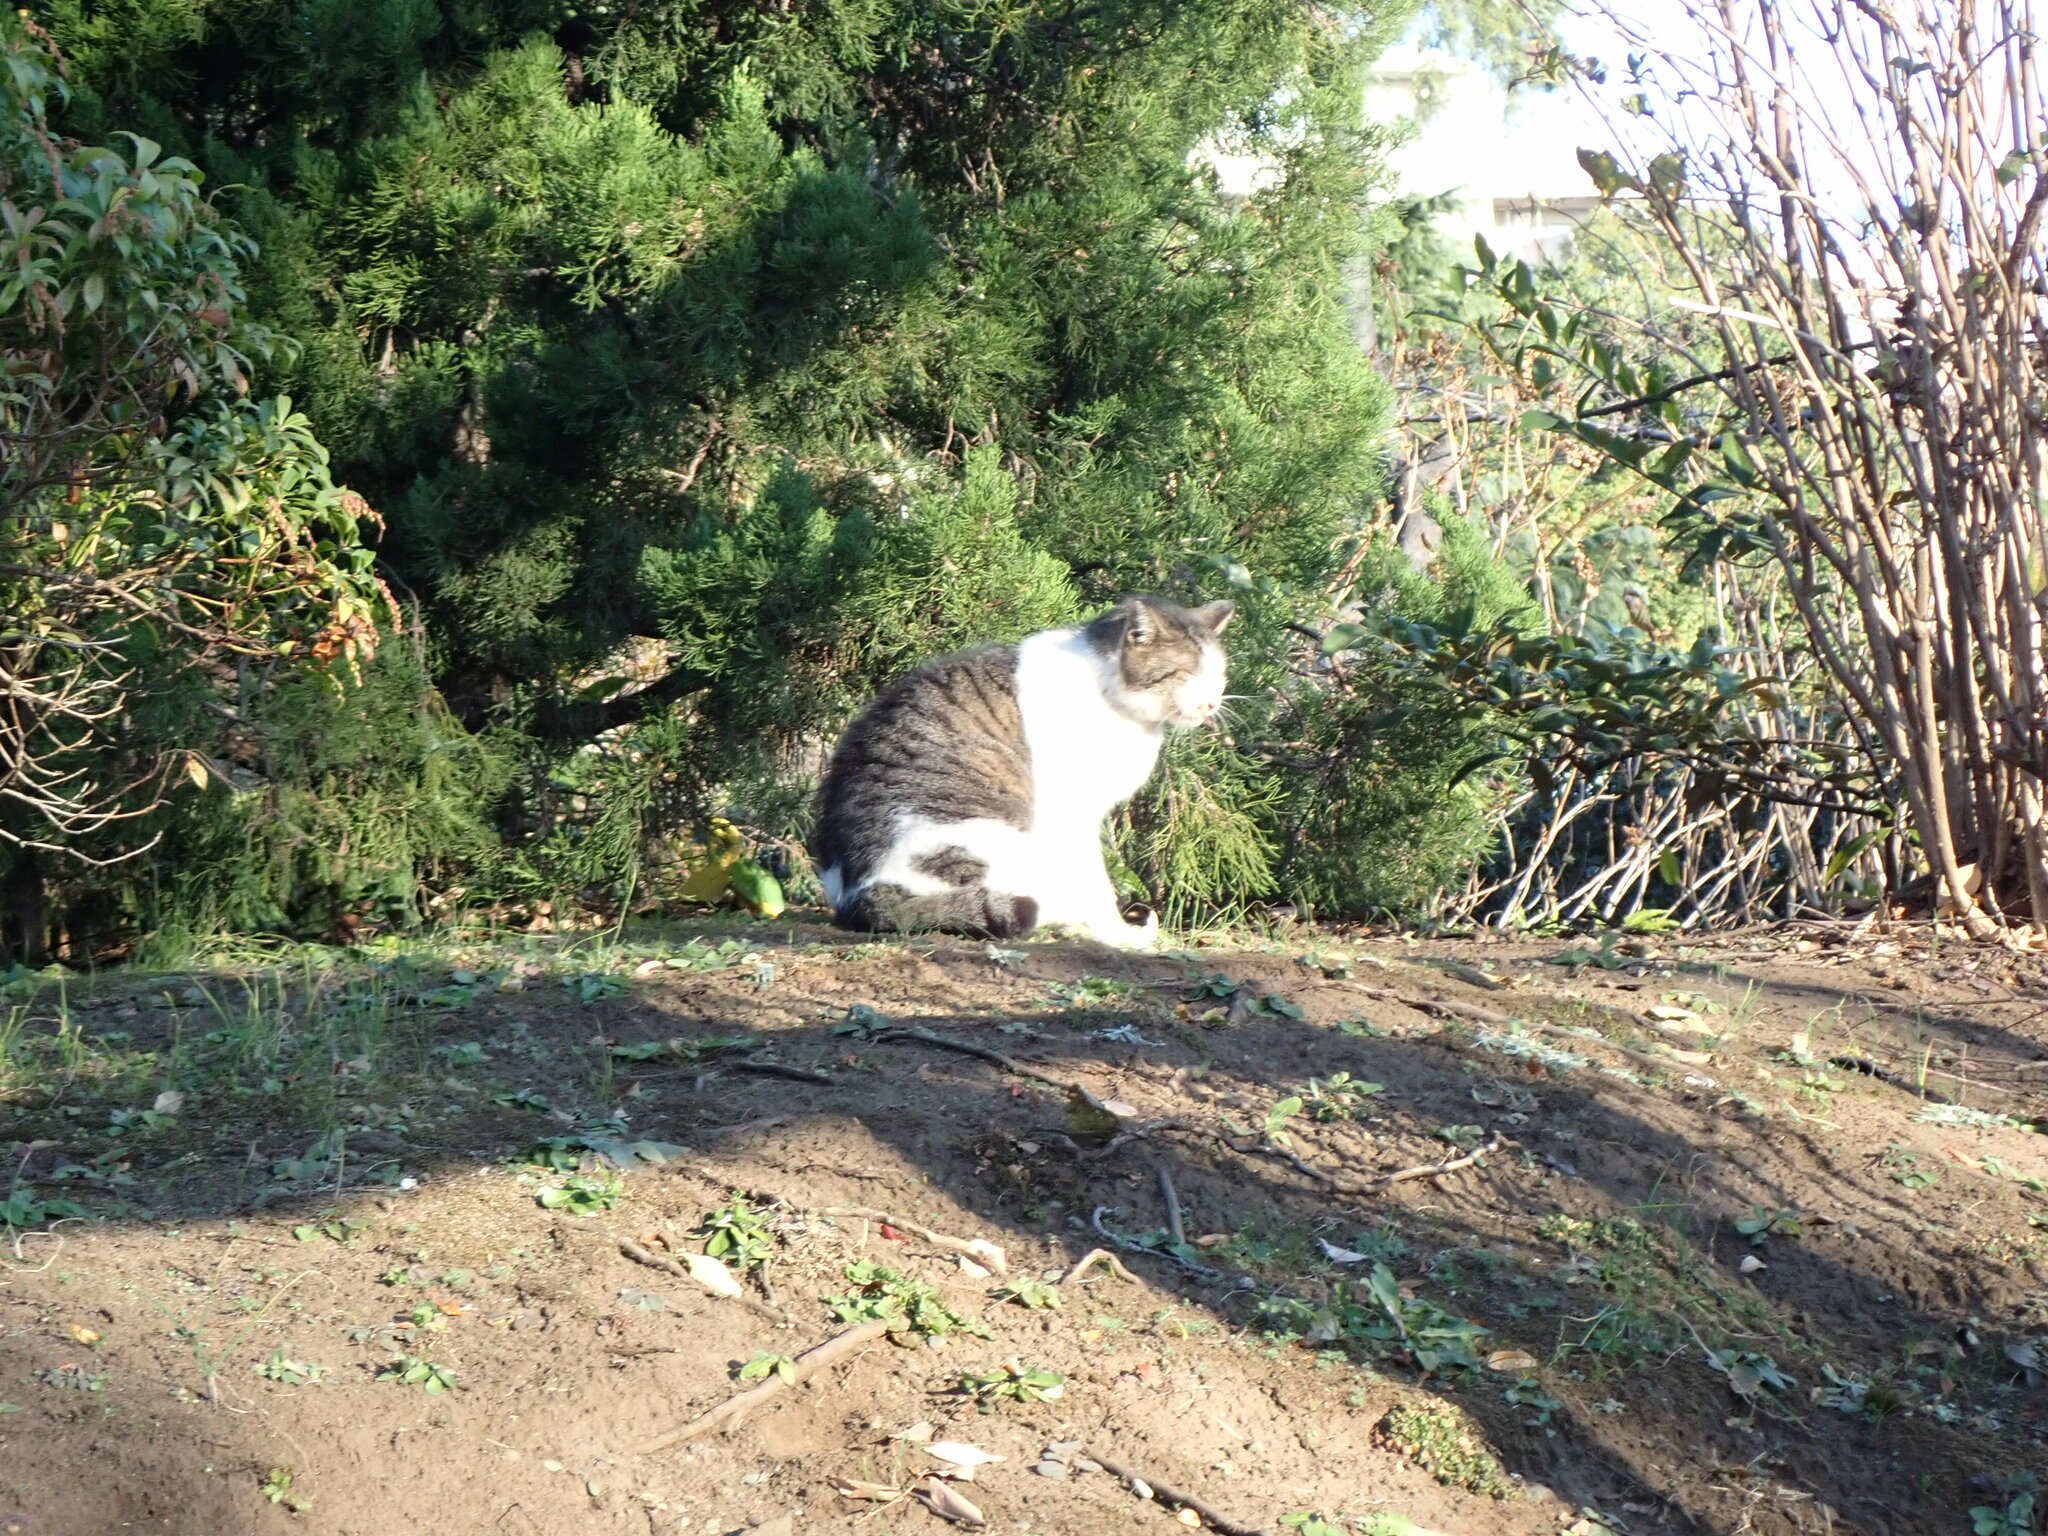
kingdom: Animalia
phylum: Chordata
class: Mammalia
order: Carnivora
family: Felidae
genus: Felis
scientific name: Felis catus
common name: Domestic cat
